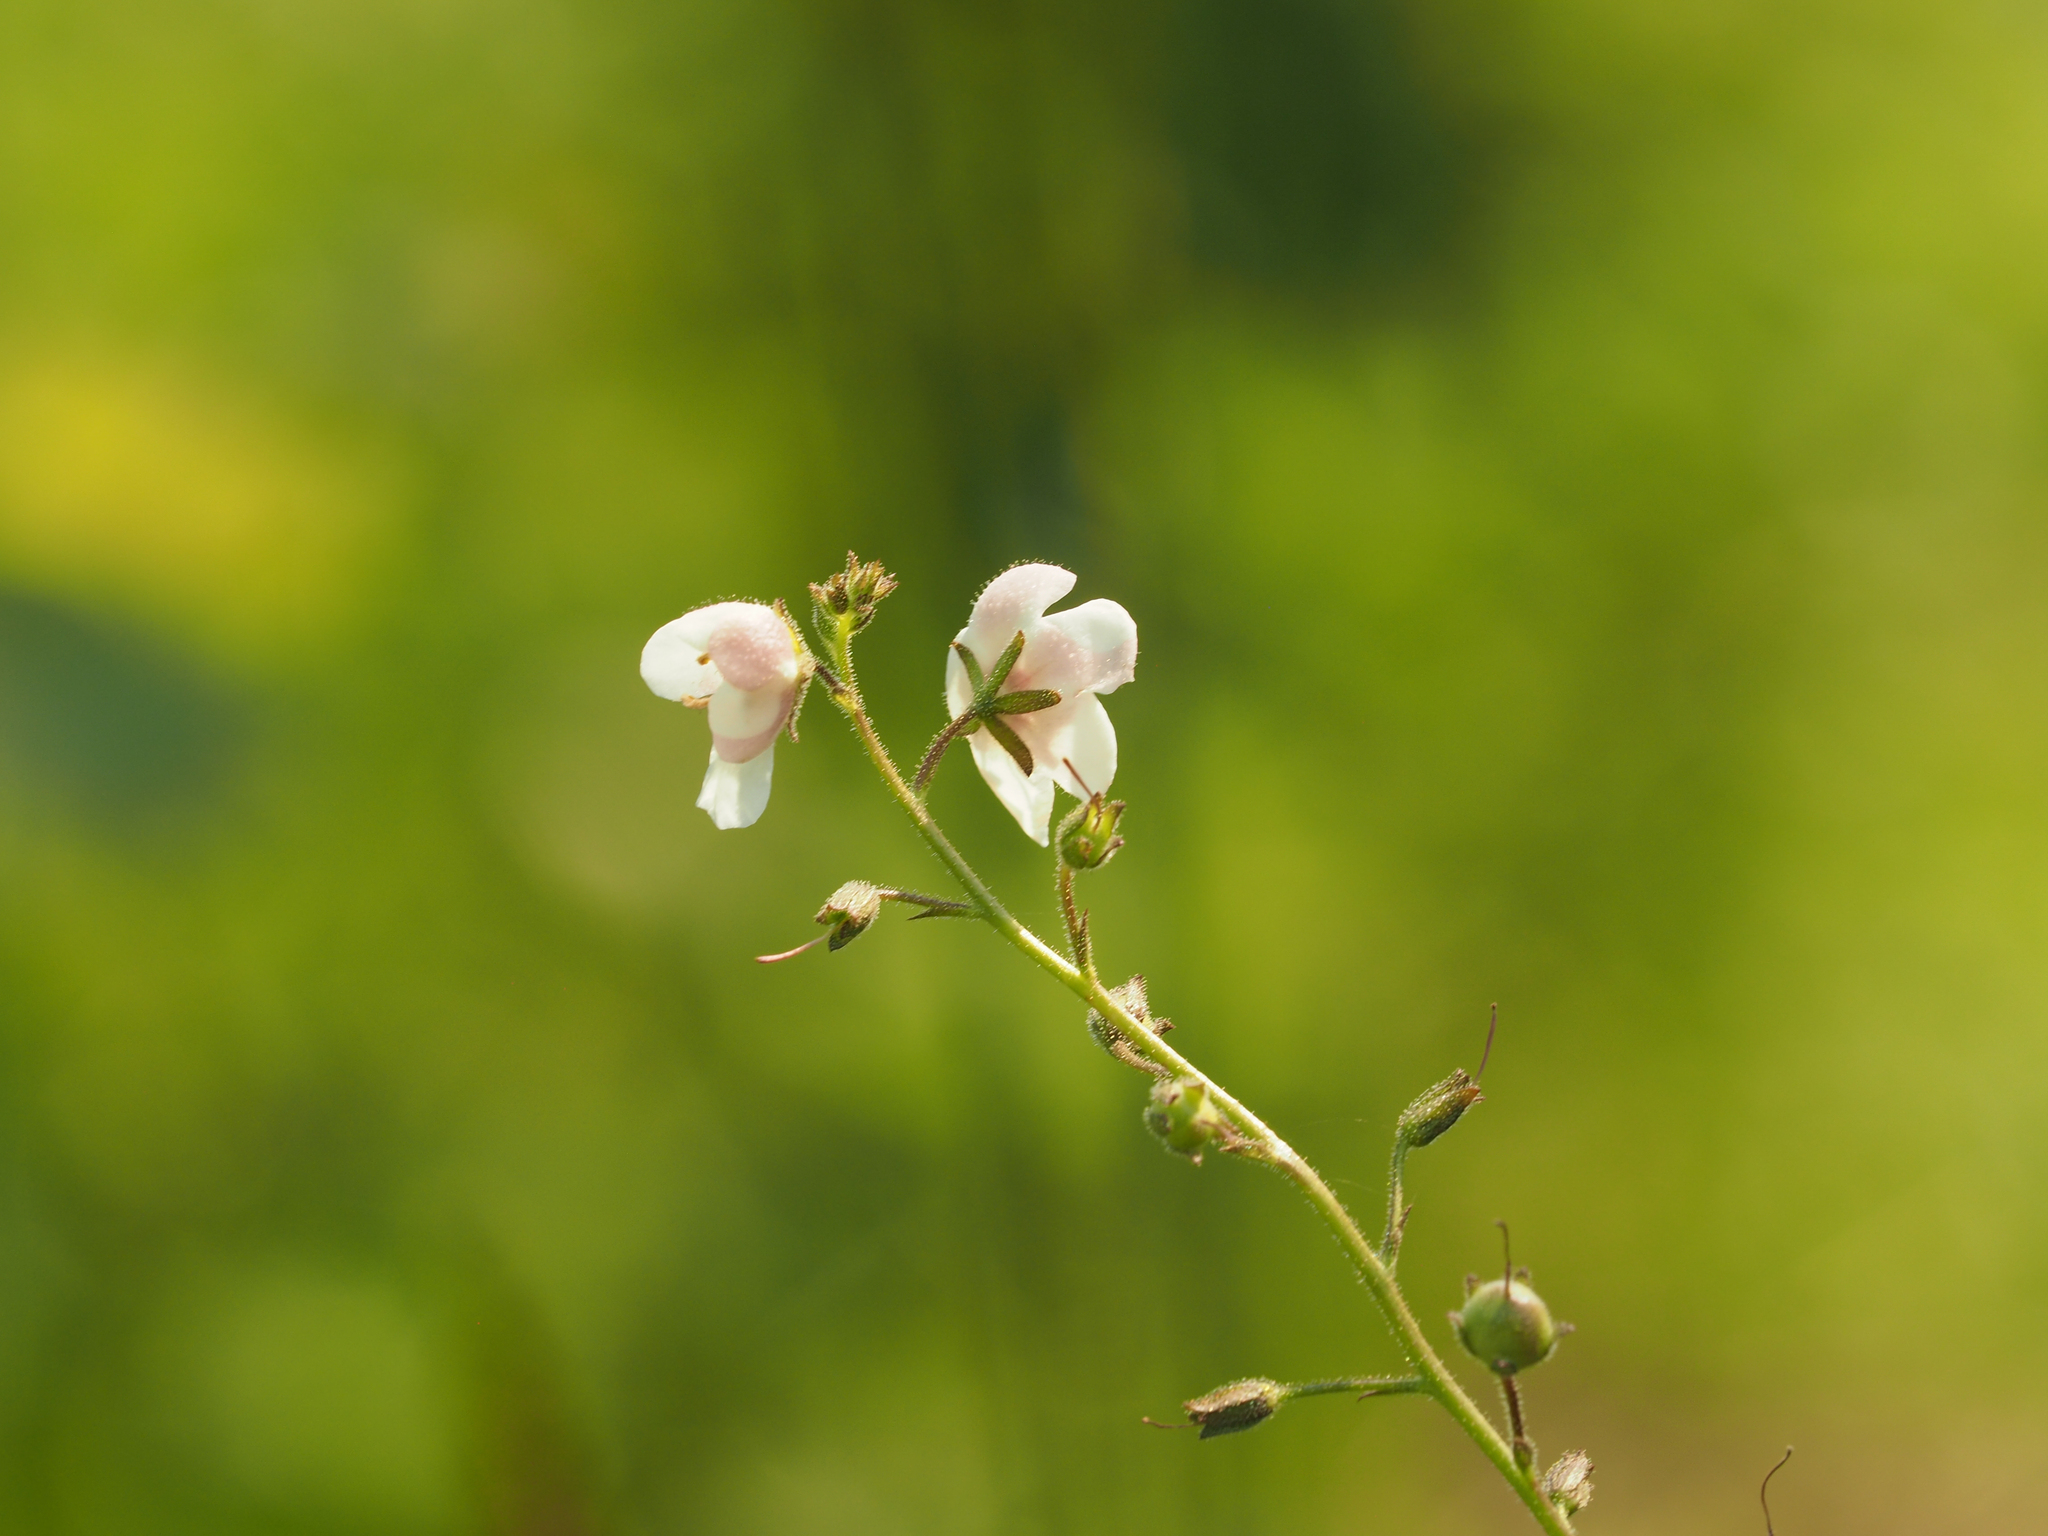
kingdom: Plantae
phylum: Tracheophyta
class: Magnoliopsida
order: Lamiales
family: Scrophulariaceae
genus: Verbascum
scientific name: Verbascum blattaria
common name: Moth mullein
